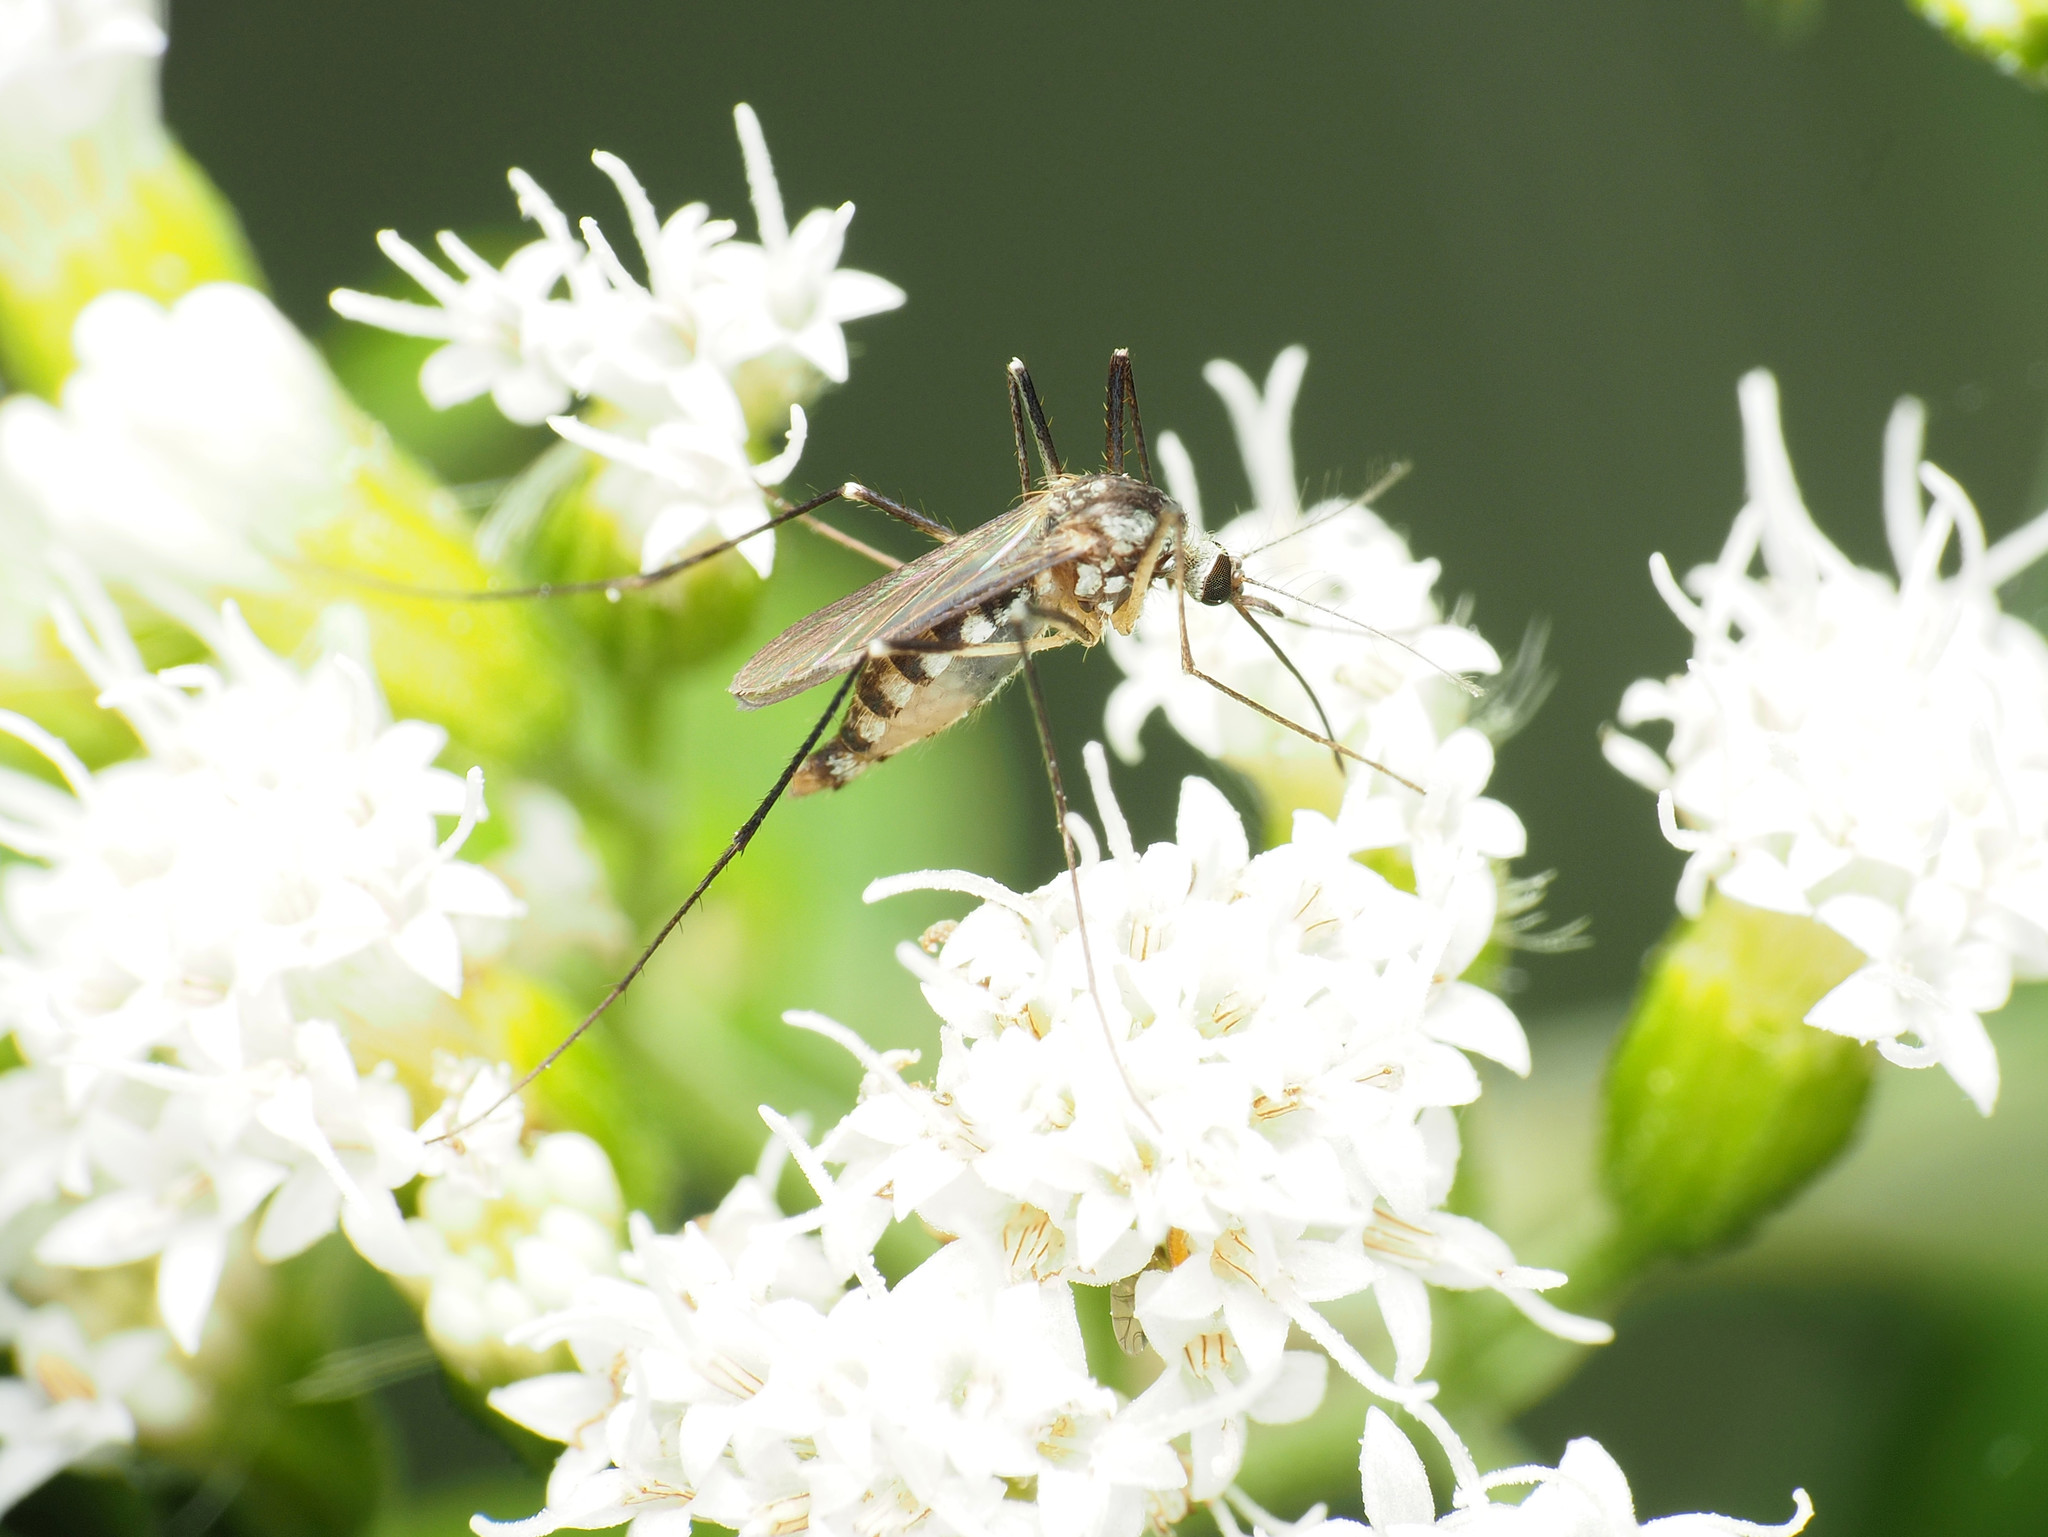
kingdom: Animalia
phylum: Arthropoda
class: Insecta
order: Diptera
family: Culicidae
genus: Aedes
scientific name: Aedes triseriatus
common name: Eastern treehole mosquito
